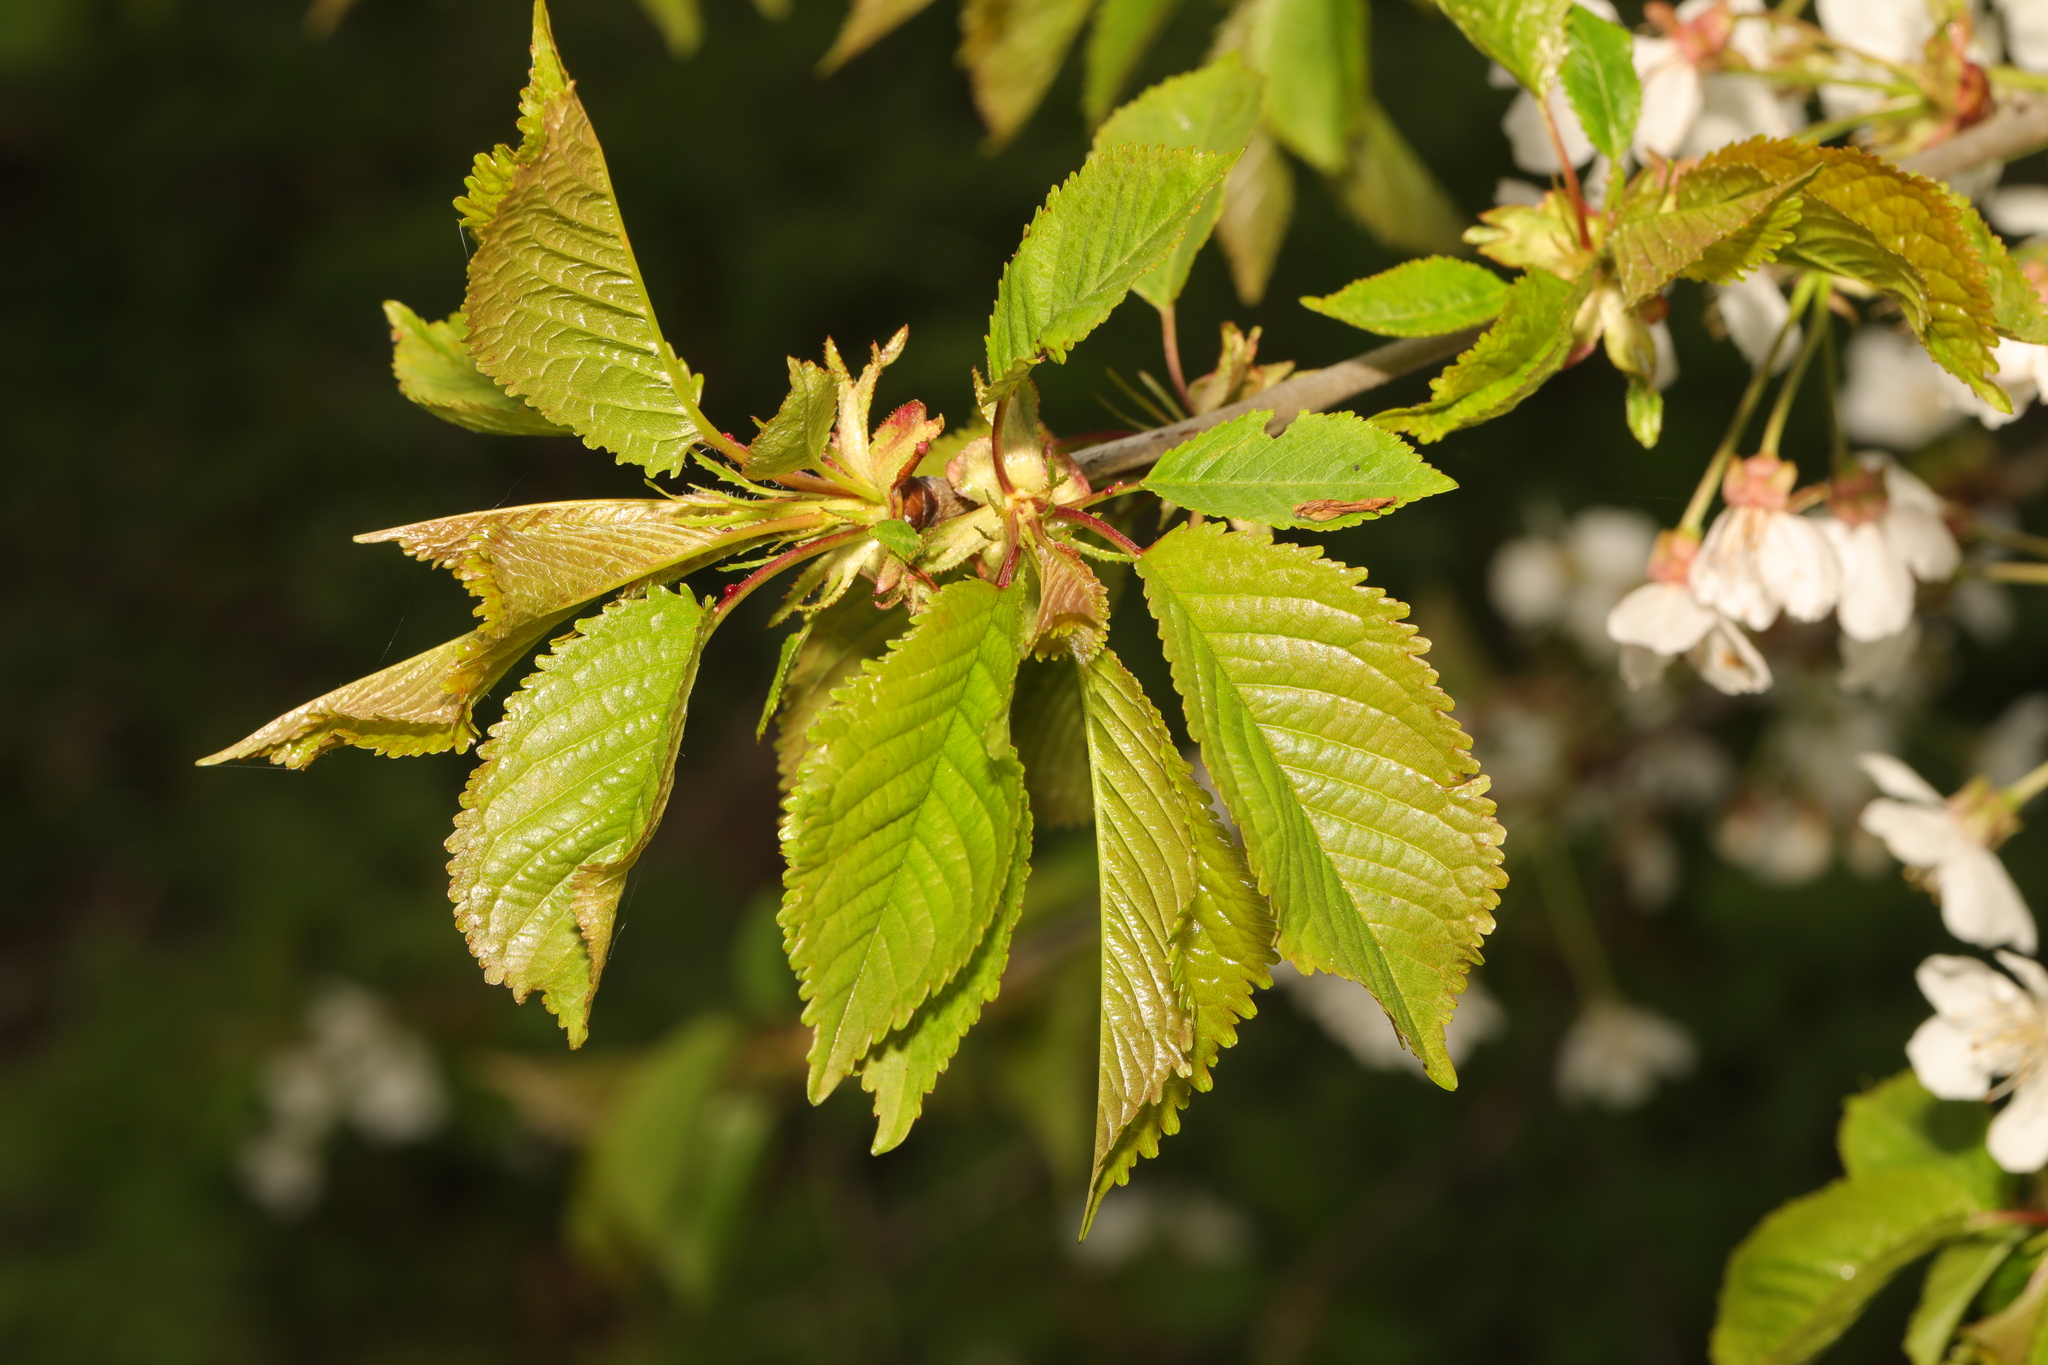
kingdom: Plantae
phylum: Tracheophyta
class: Magnoliopsida
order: Rosales
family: Rosaceae
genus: Prunus
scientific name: Prunus avium
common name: Sweet cherry
